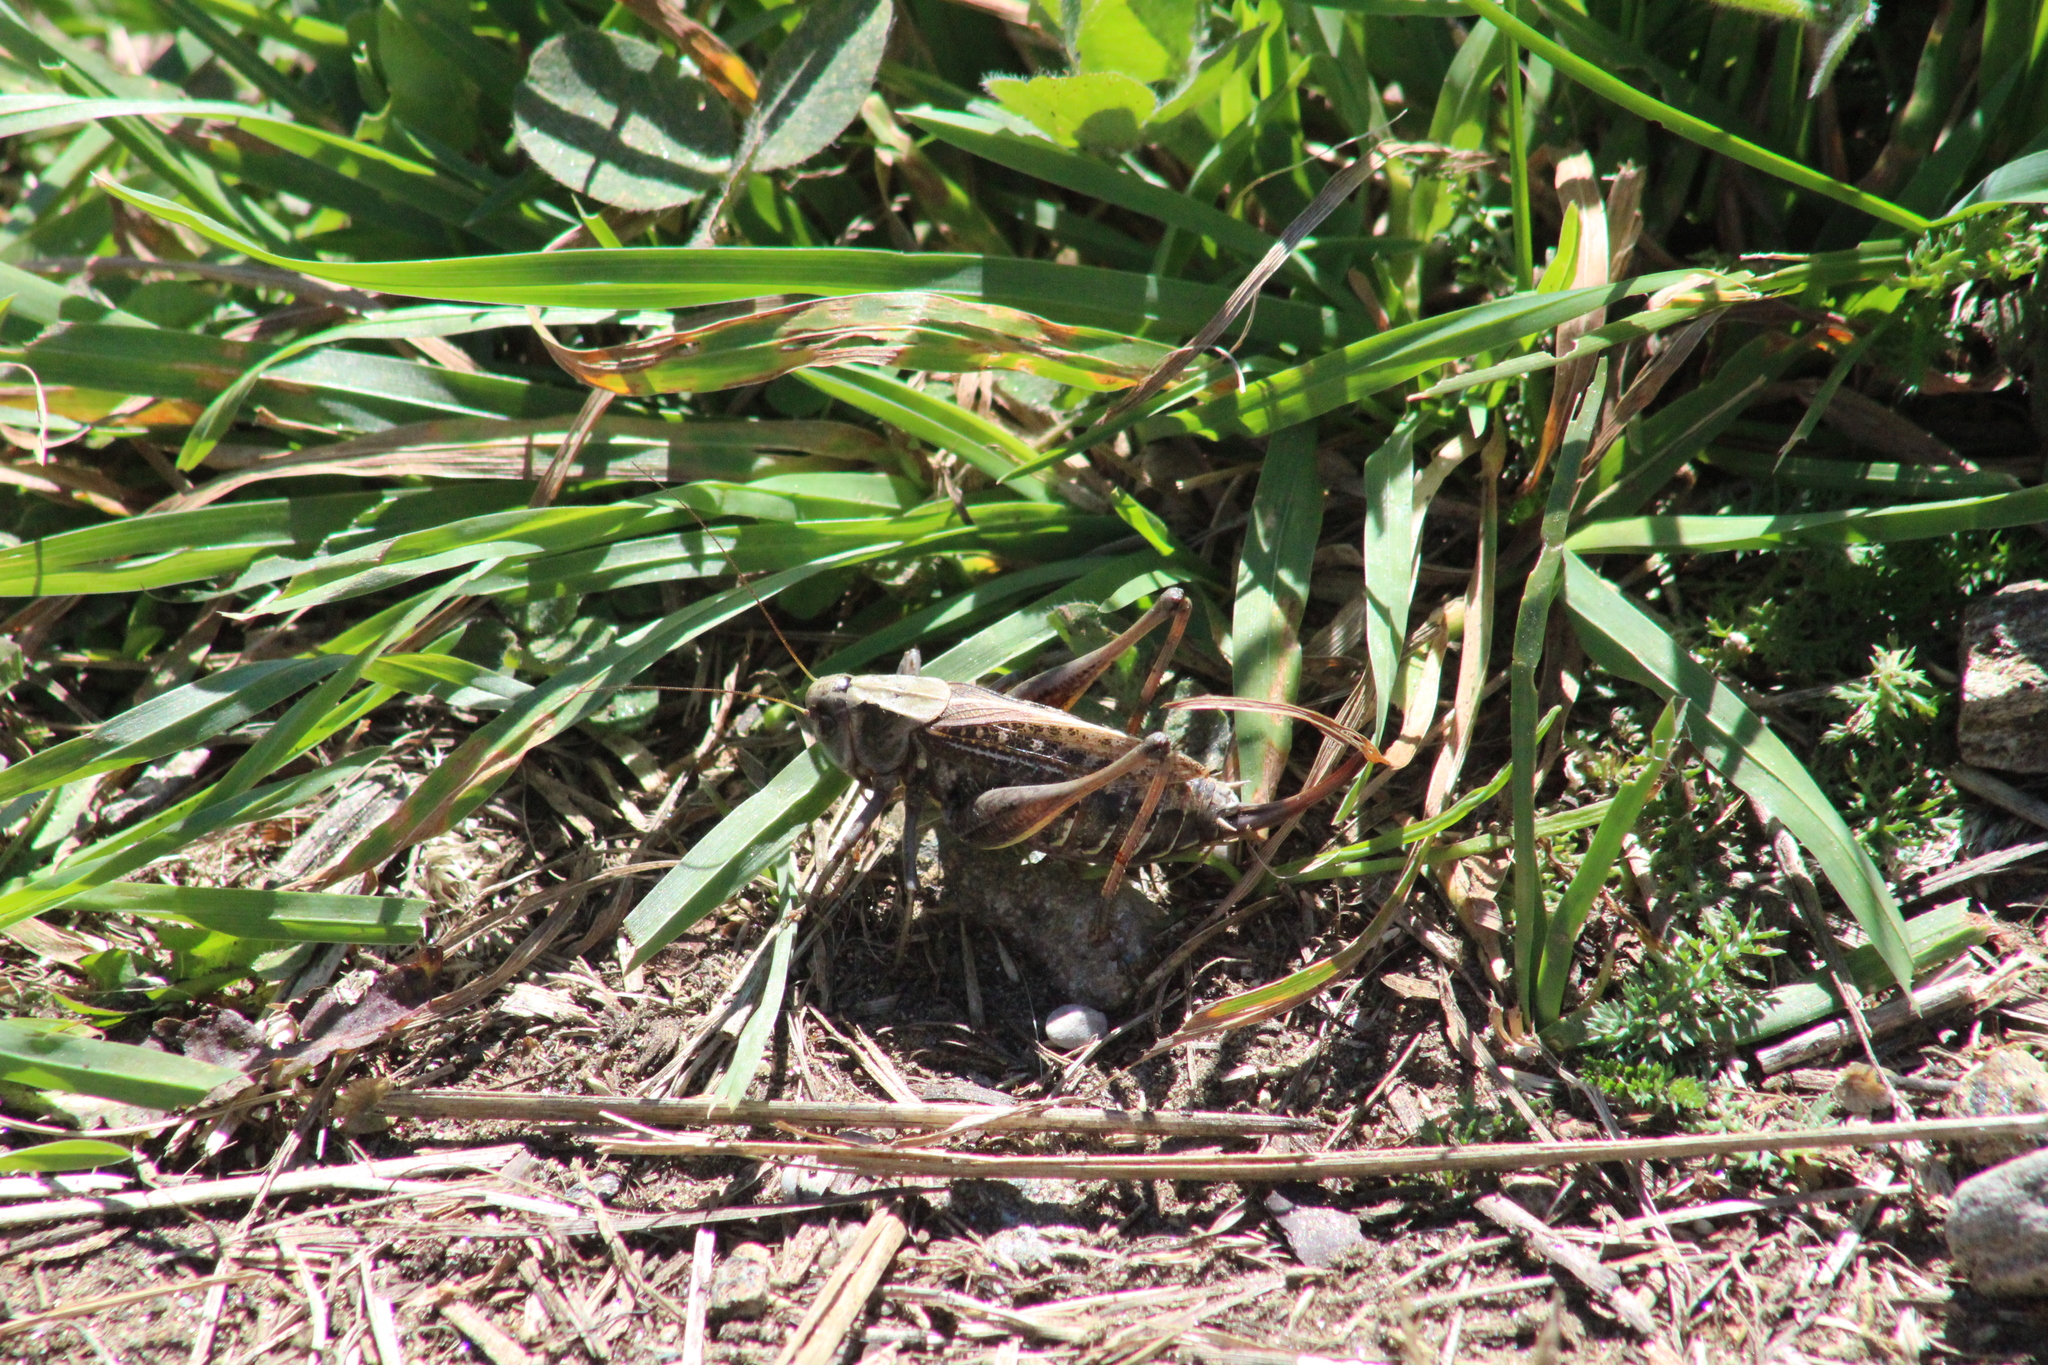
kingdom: Animalia
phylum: Arthropoda
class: Insecta
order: Orthoptera
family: Tettigoniidae
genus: Decticus
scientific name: Decticus verrucivorus
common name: Wart-biter
